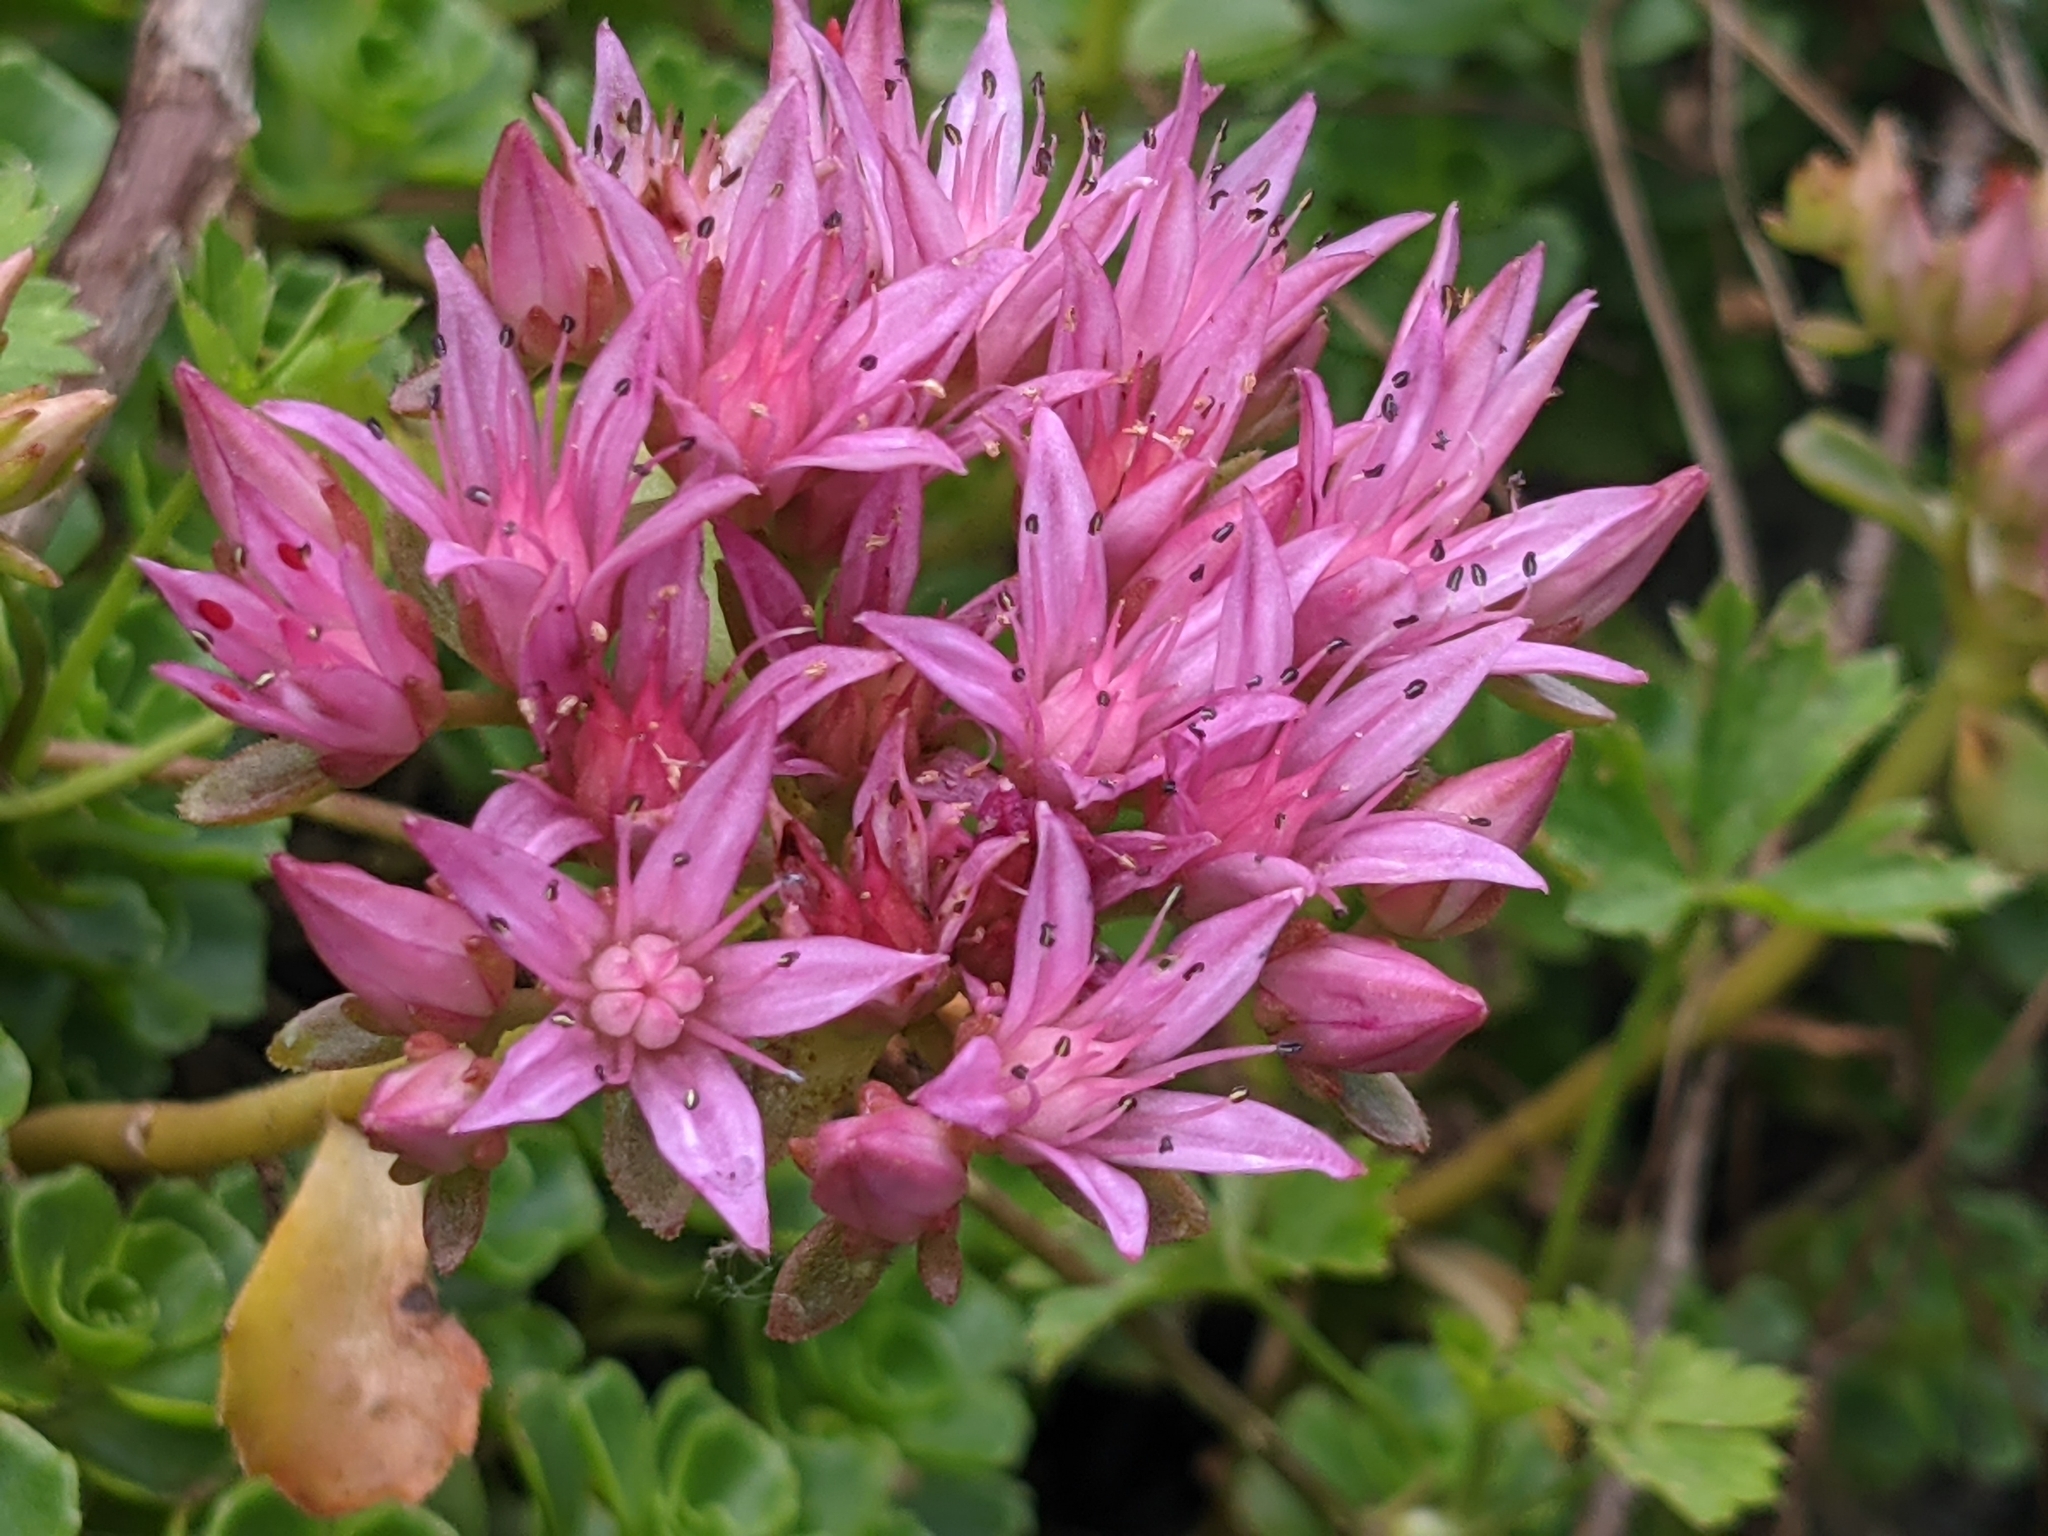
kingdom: Plantae
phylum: Tracheophyta
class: Magnoliopsida
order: Saxifragales
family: Crassulaceae
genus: Phedimus
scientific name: Phedimus spurius
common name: Caucasian stonecrop
